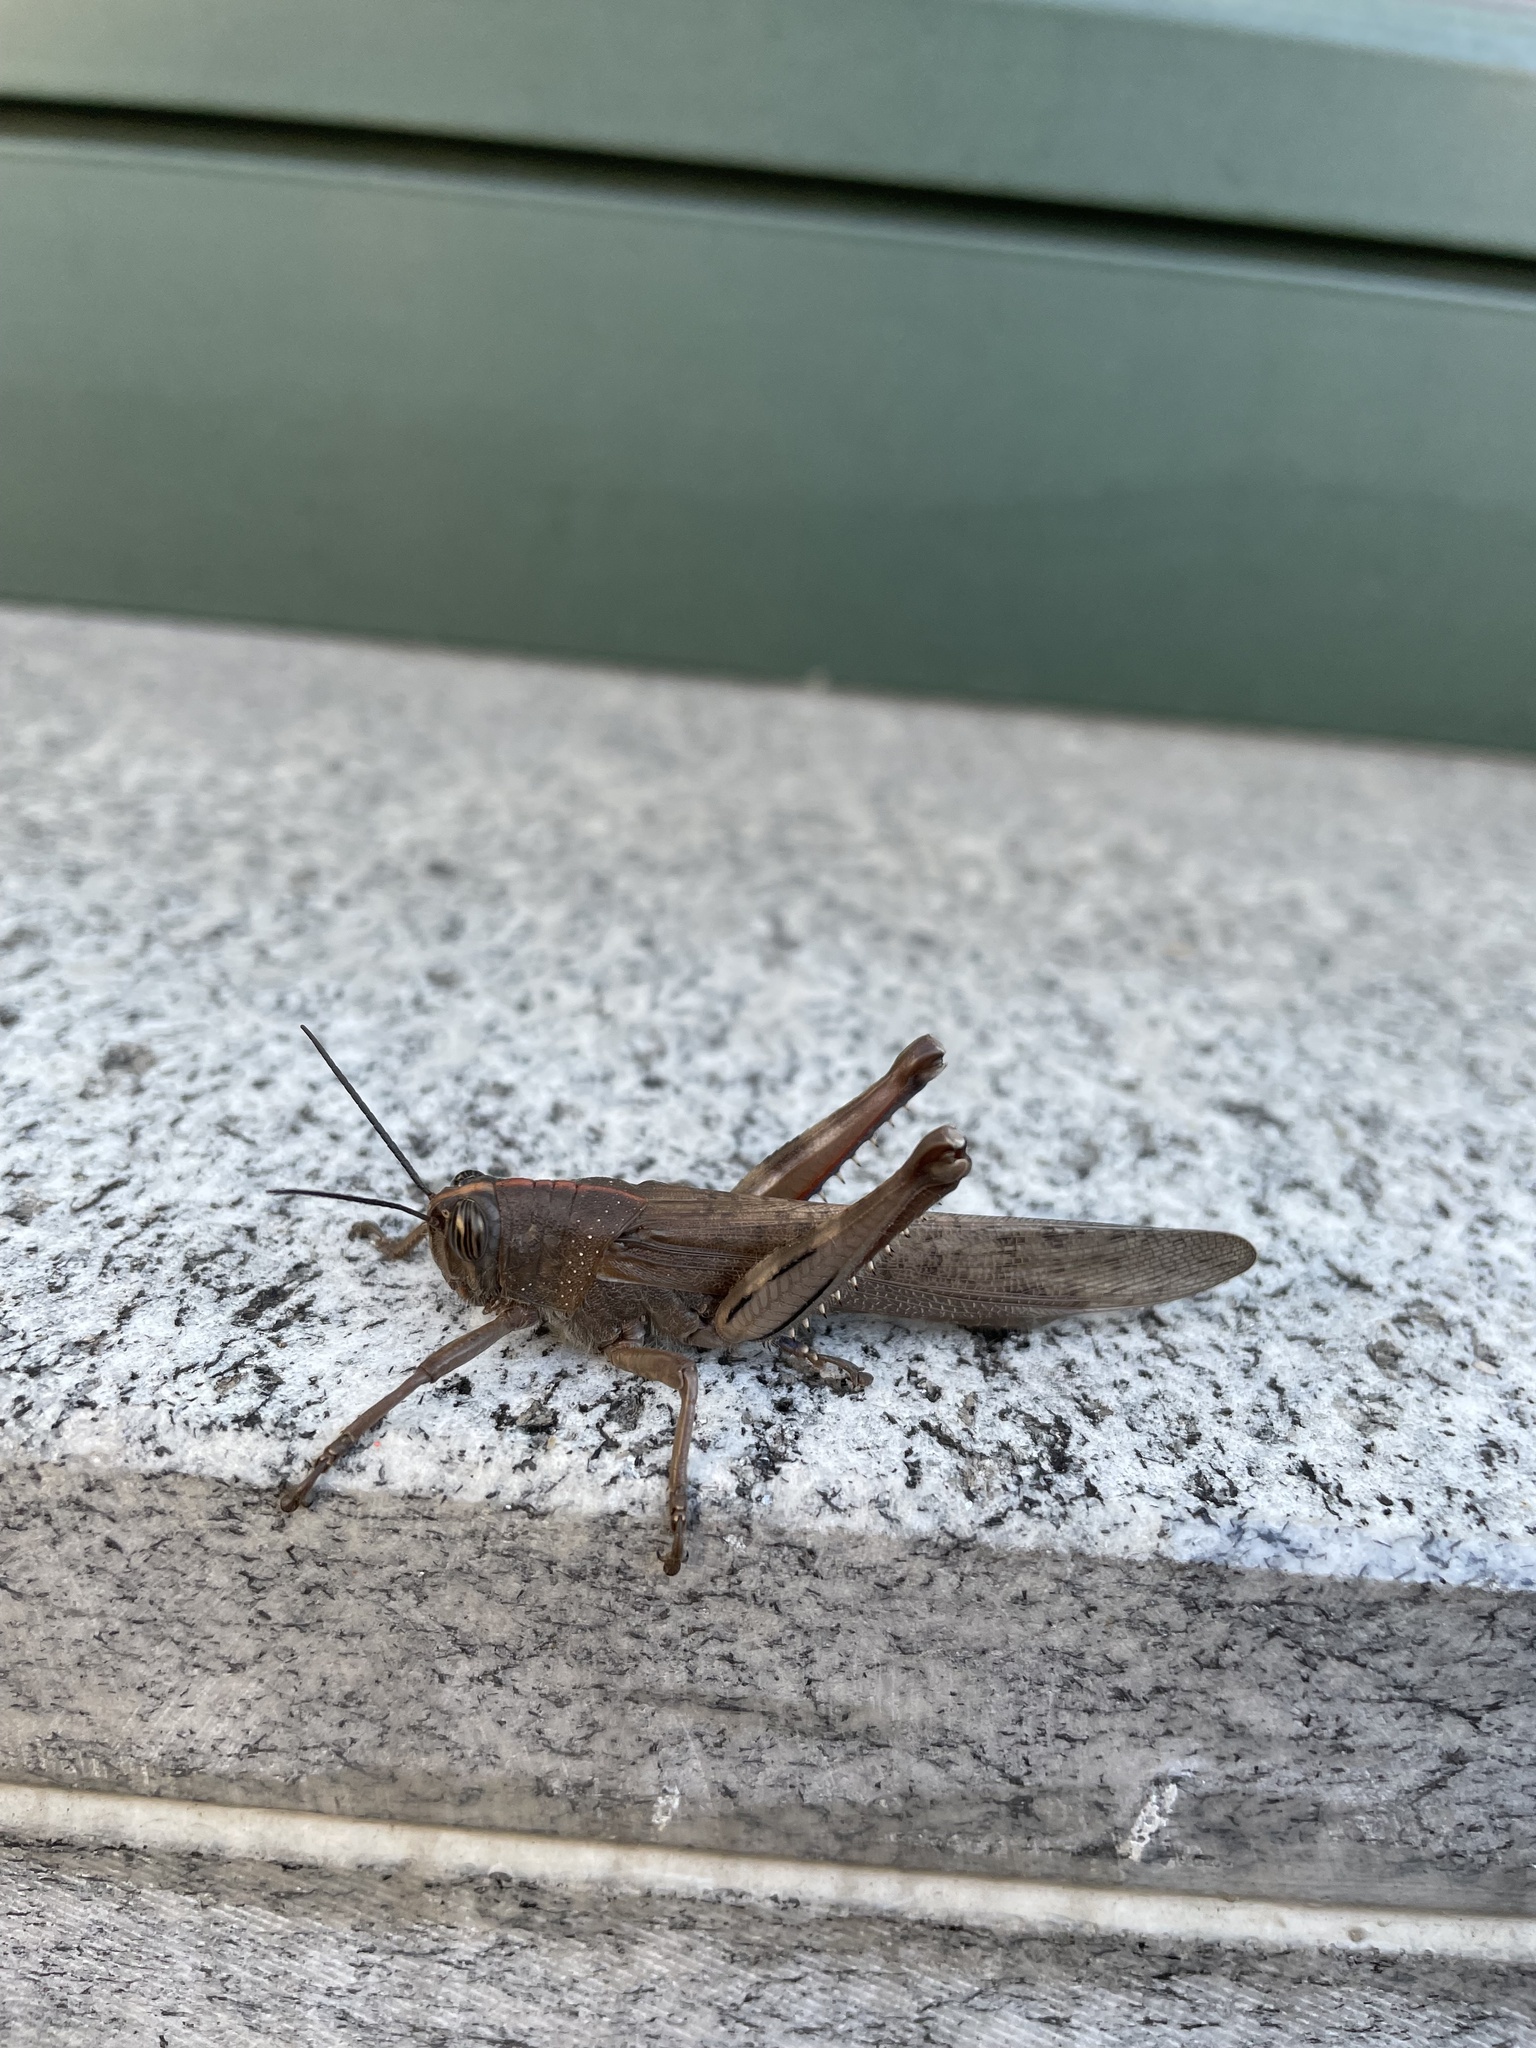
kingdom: Animalia
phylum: Arthropoda
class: Insecta
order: Orthoptera
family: Acrididae
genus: Anacridium
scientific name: Anacridium aegyptium
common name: Egyptian grasshopper
